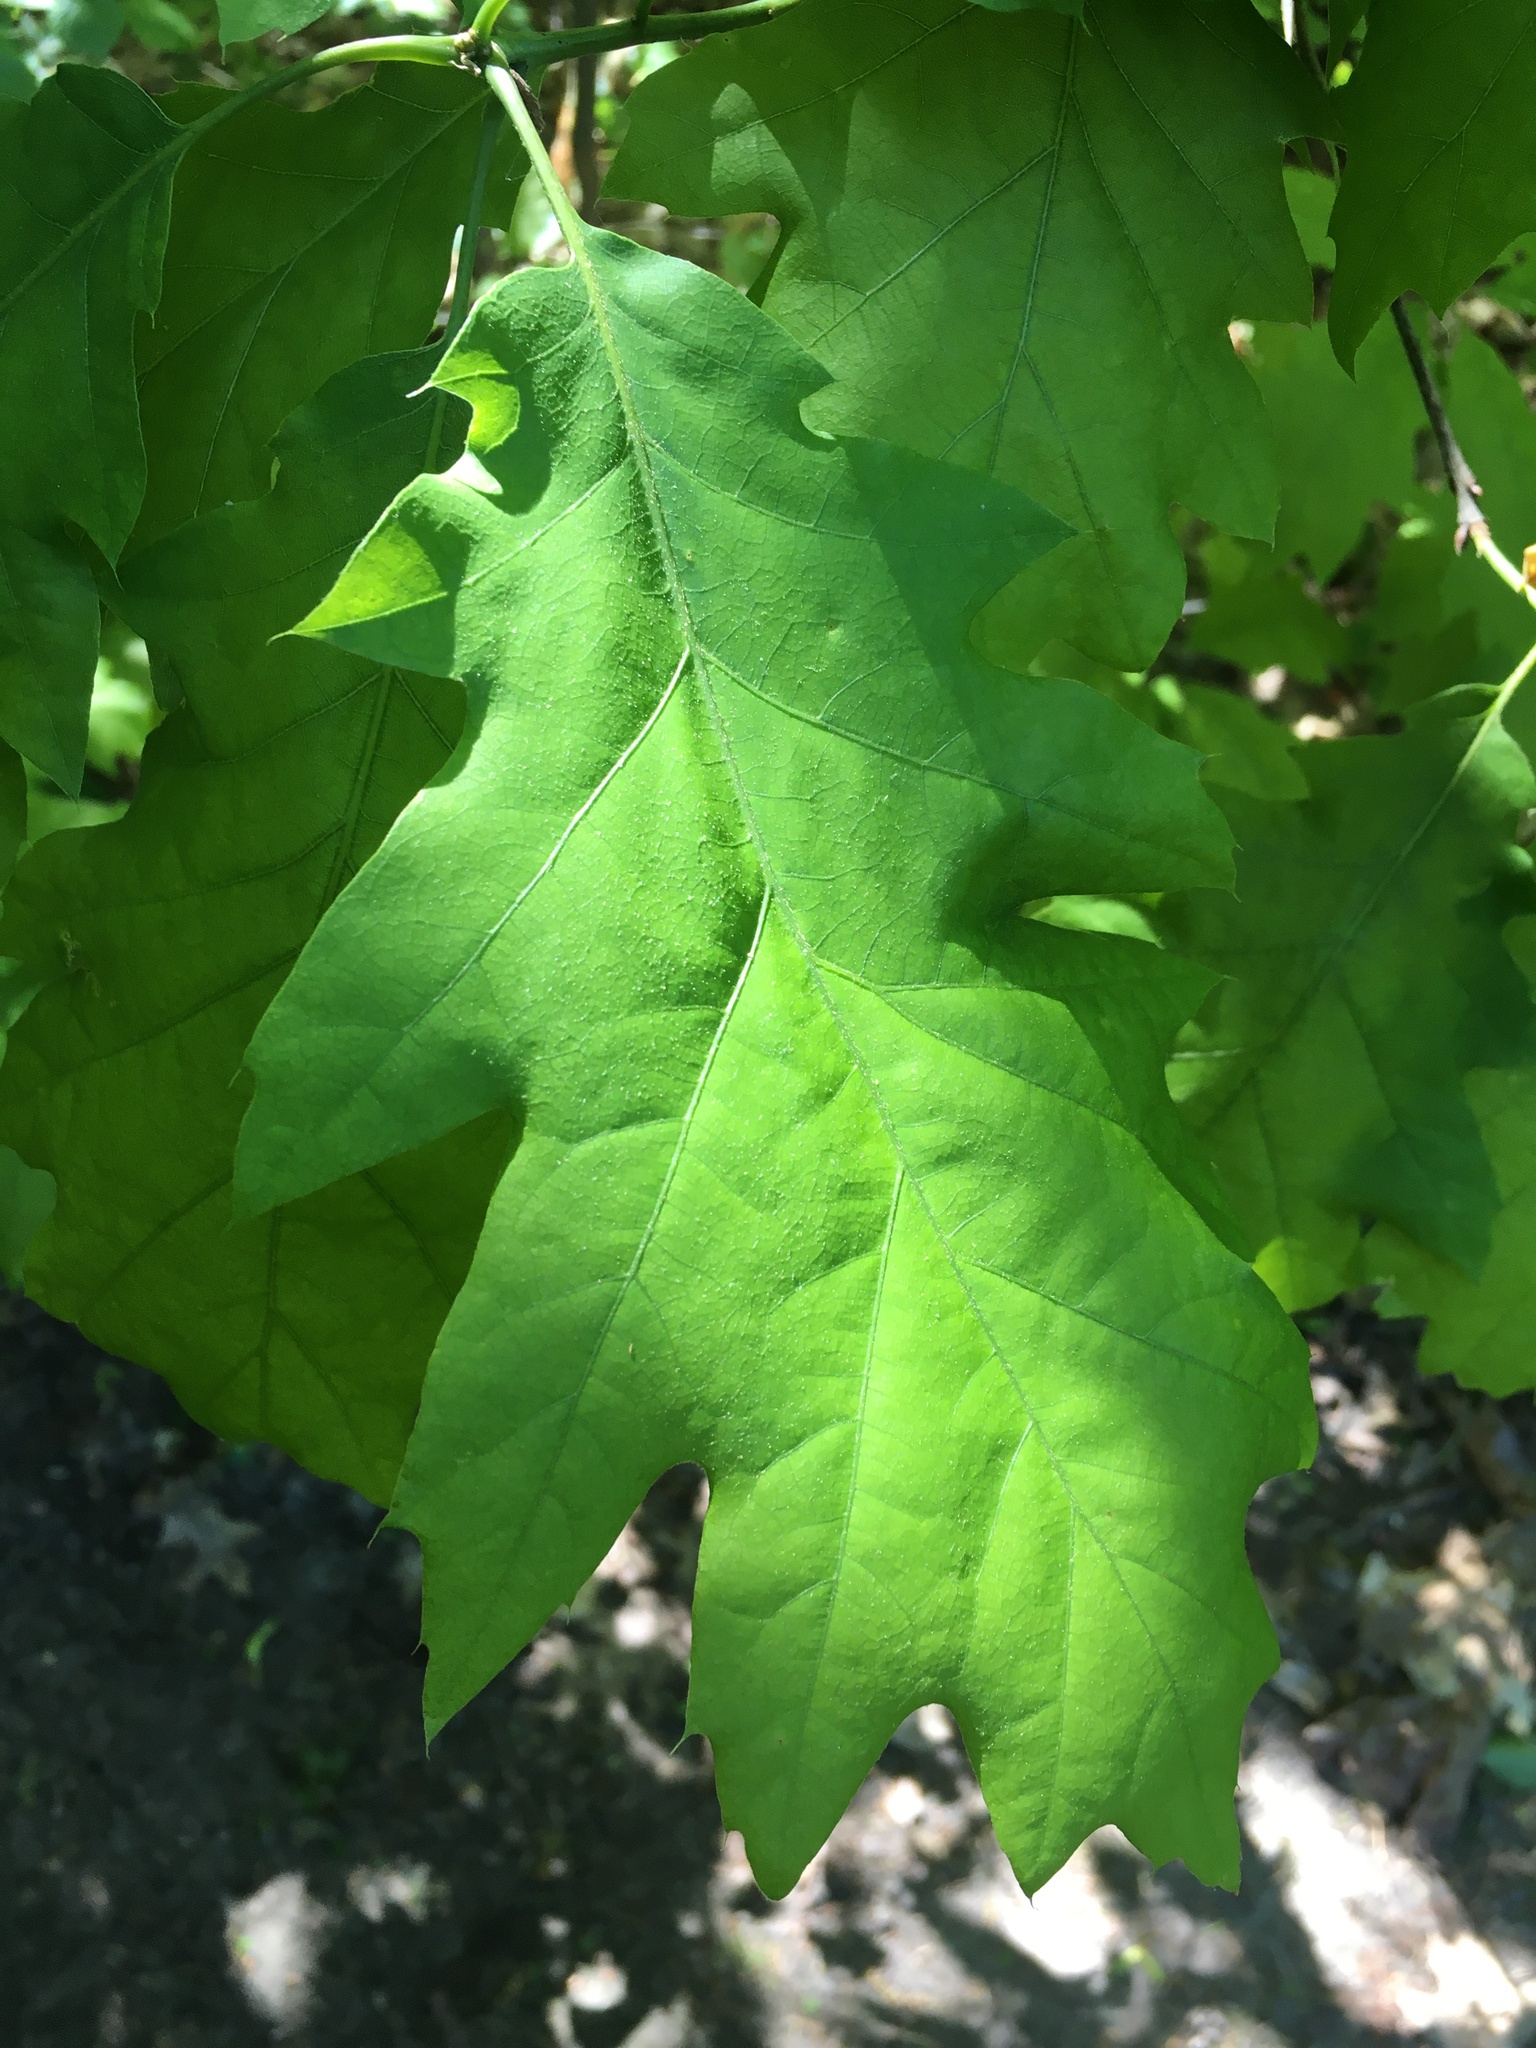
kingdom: Plantae
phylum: Tracheophyta
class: Magnoliopsida
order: Fagales
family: Fagaceae
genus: Quercus
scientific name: Quercus rubra
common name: Red oak
